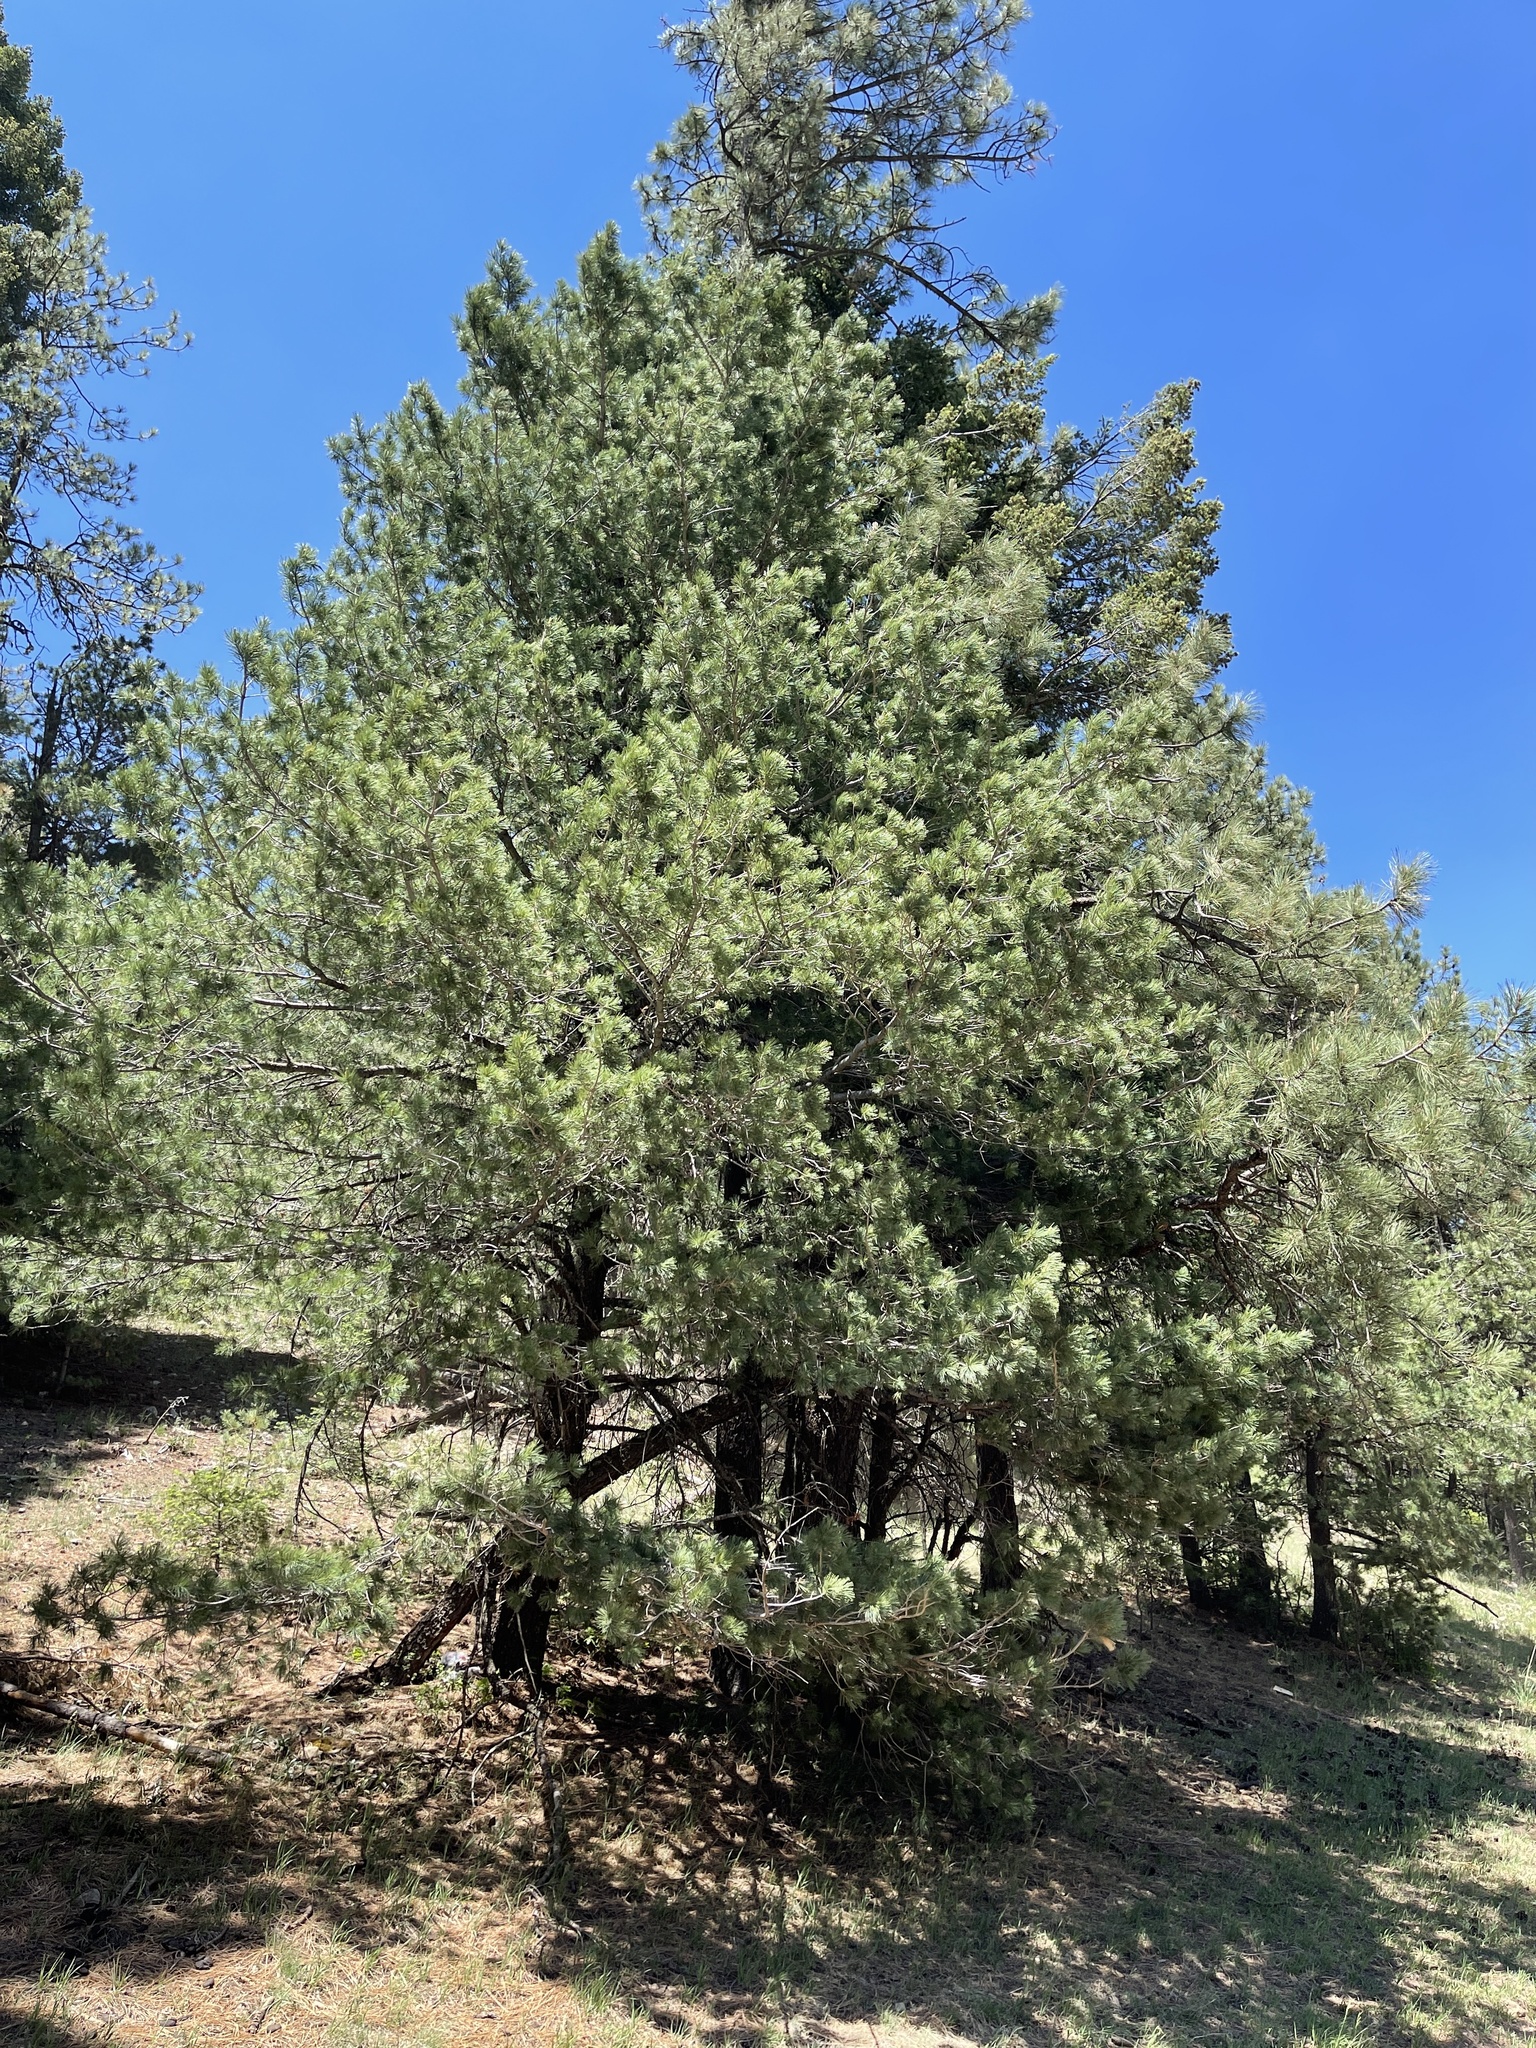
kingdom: Plantae
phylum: Tracheophyta
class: Pinopsida
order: Pinales
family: Pinaceae
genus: Pinus
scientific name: Pinus strobiformis
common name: Southwestern white pine
